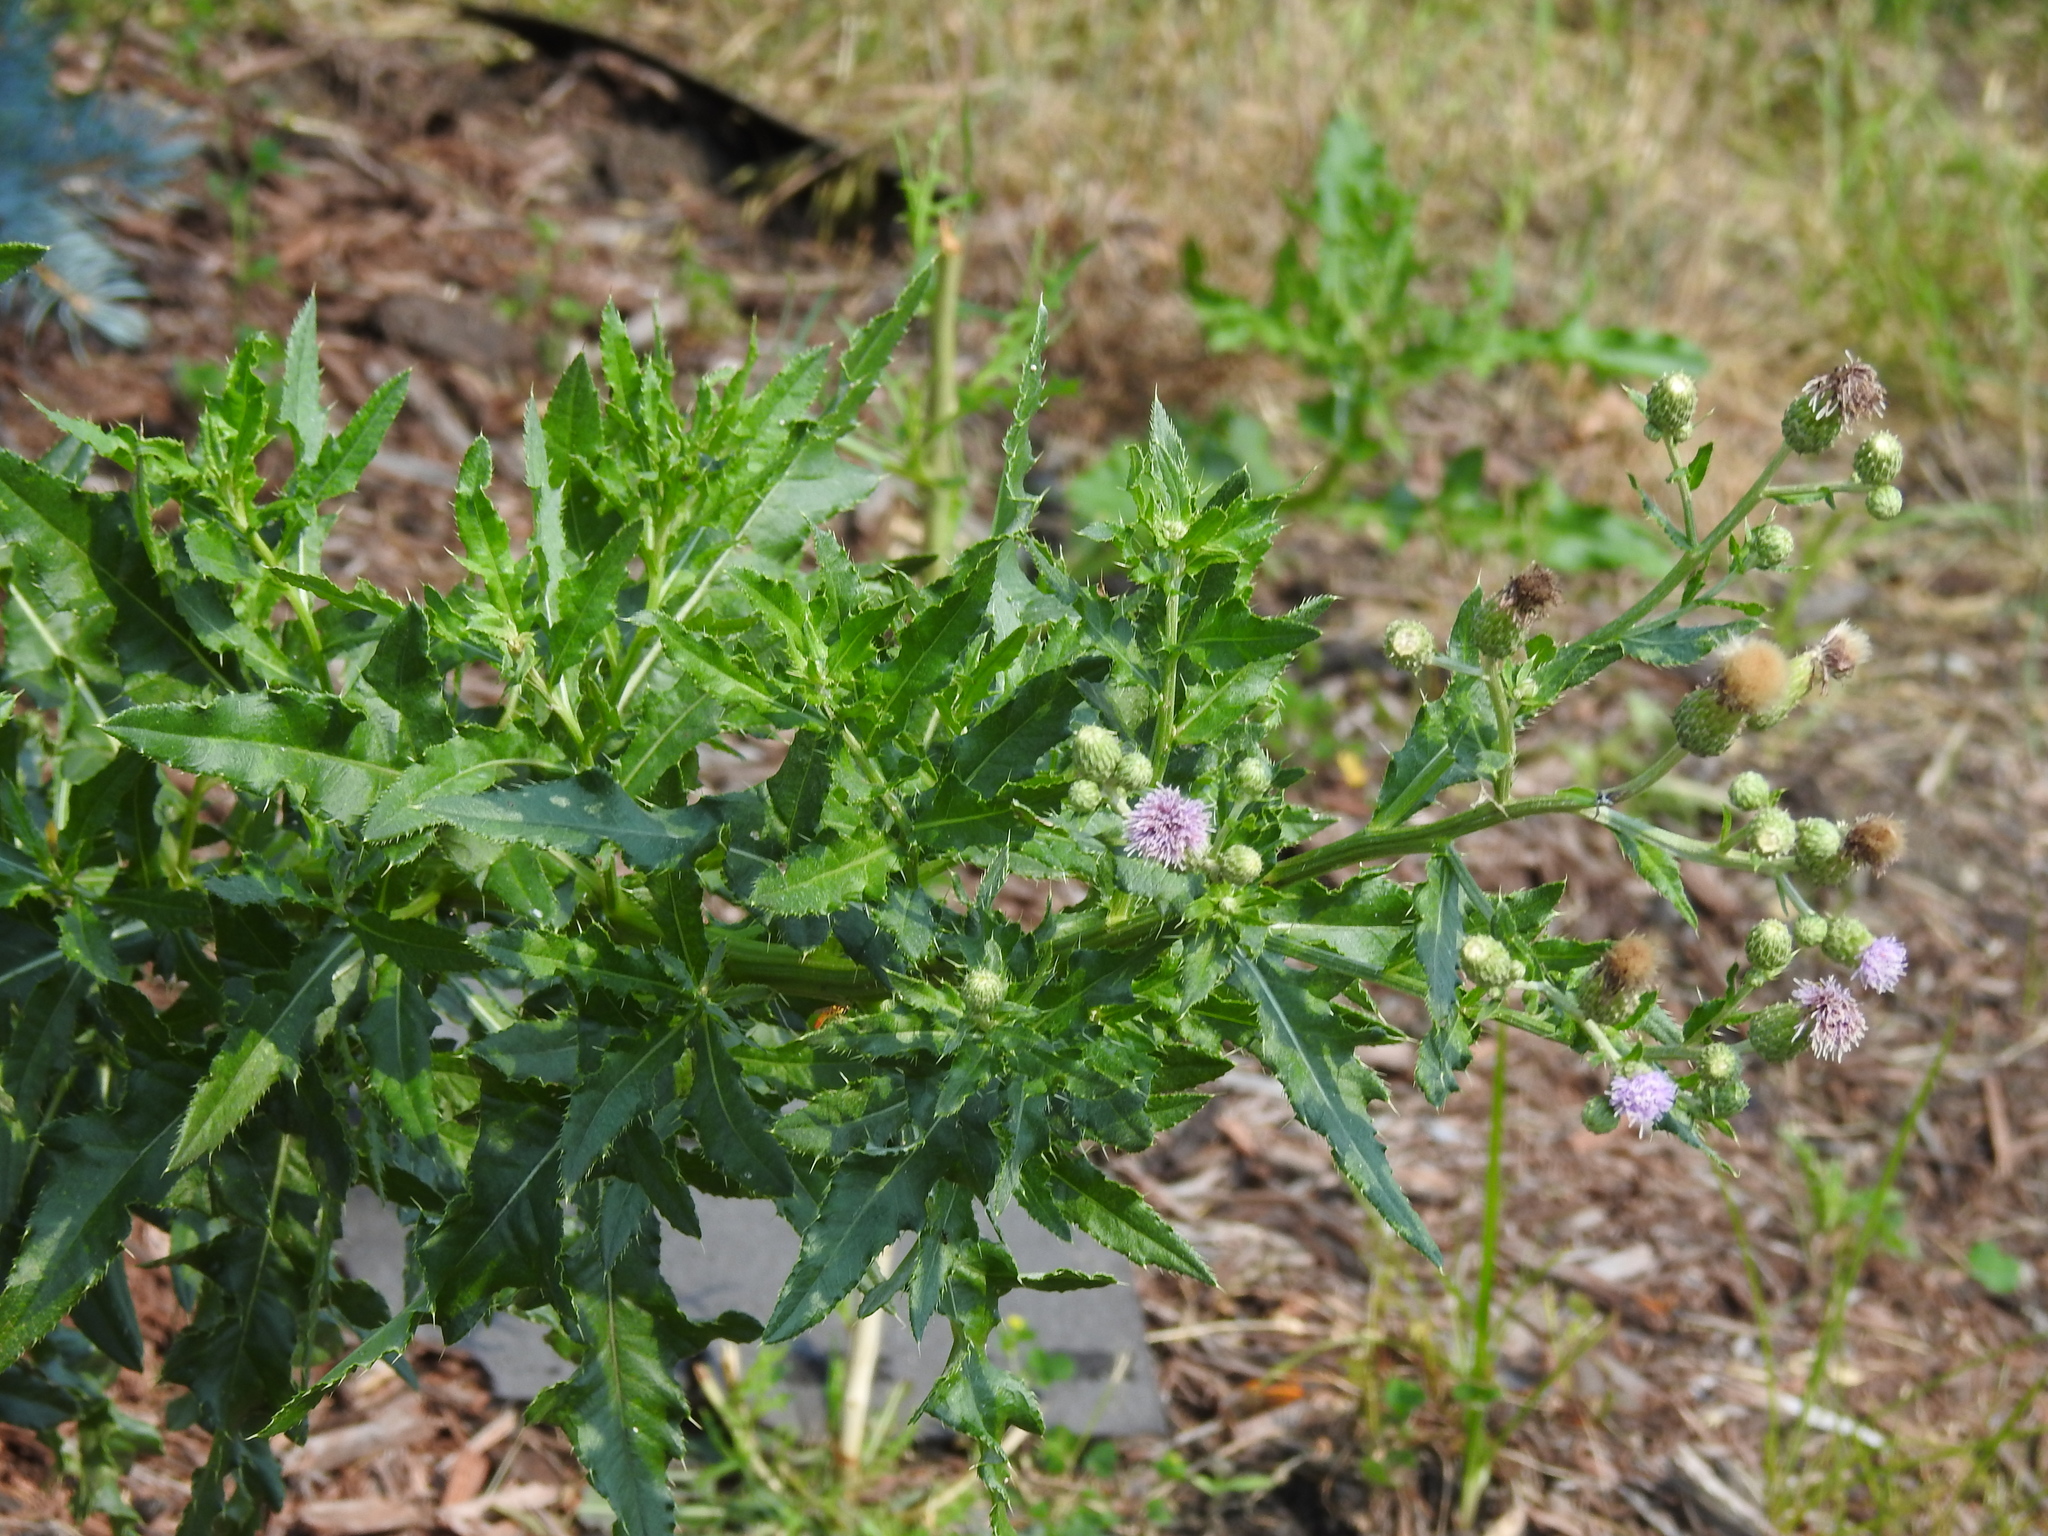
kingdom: Plantae
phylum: Tracheophyta
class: Magnoliopsida
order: Asterales
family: Asteraceae
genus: Cirsium
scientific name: Cirsium arvense
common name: Creeping thistle
